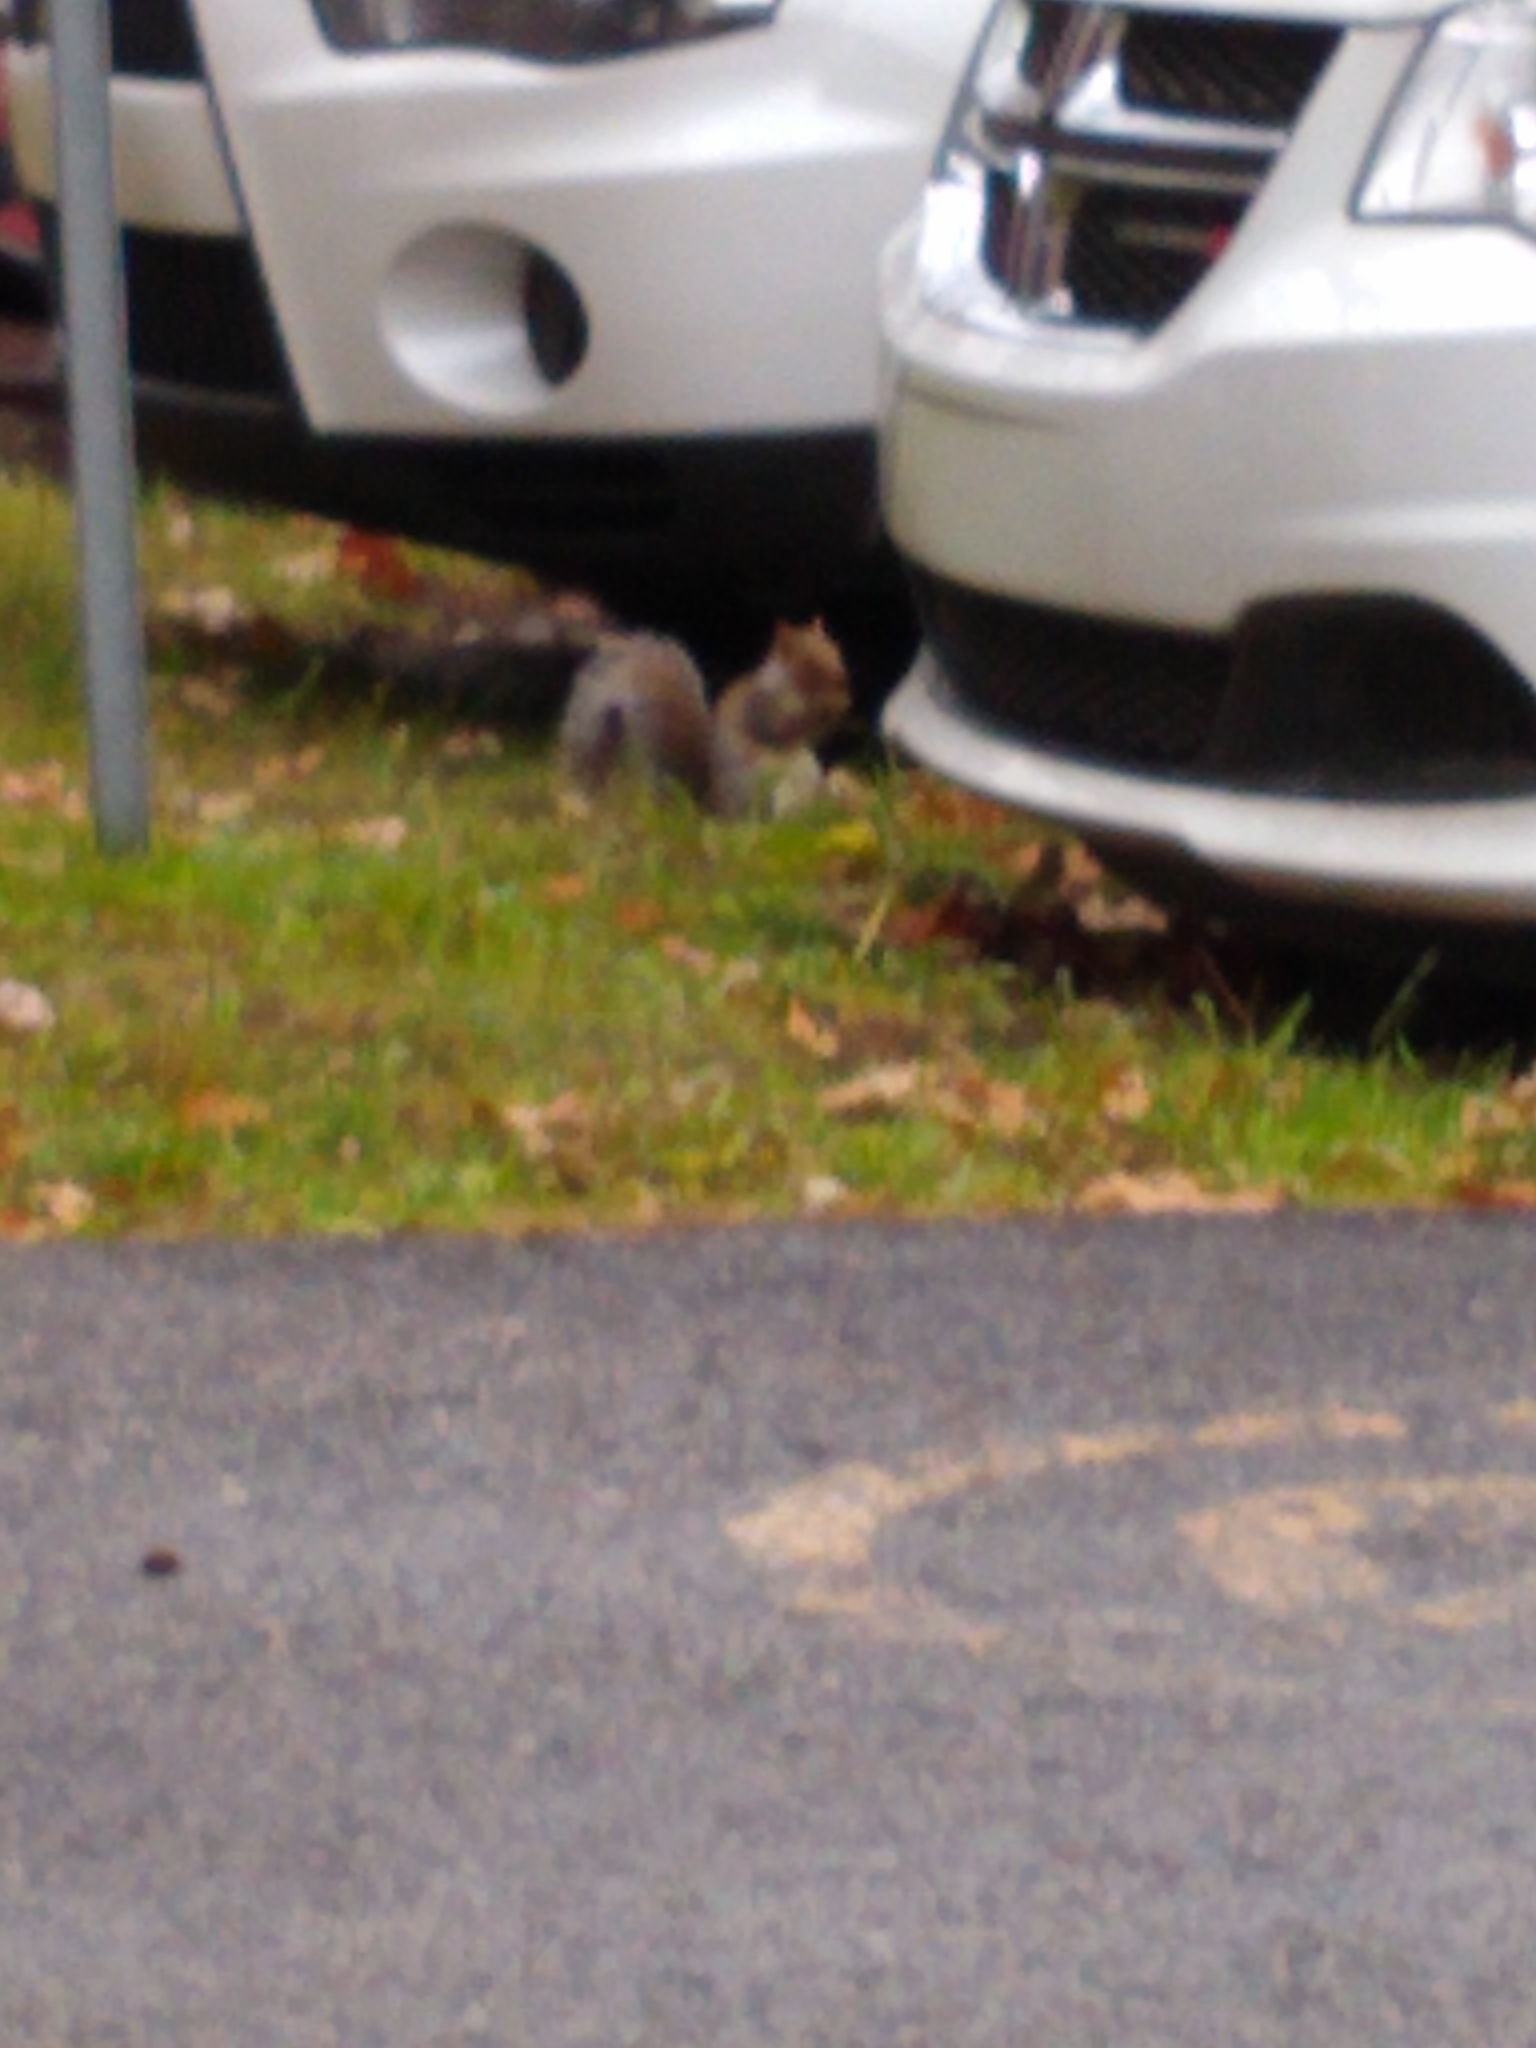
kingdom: Animalia
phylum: Chordata
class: Mammalia
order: Rodentia
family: Sciuridae
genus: Sciurus
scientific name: Sciurus carolinensis
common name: Eastern gray squirrel
